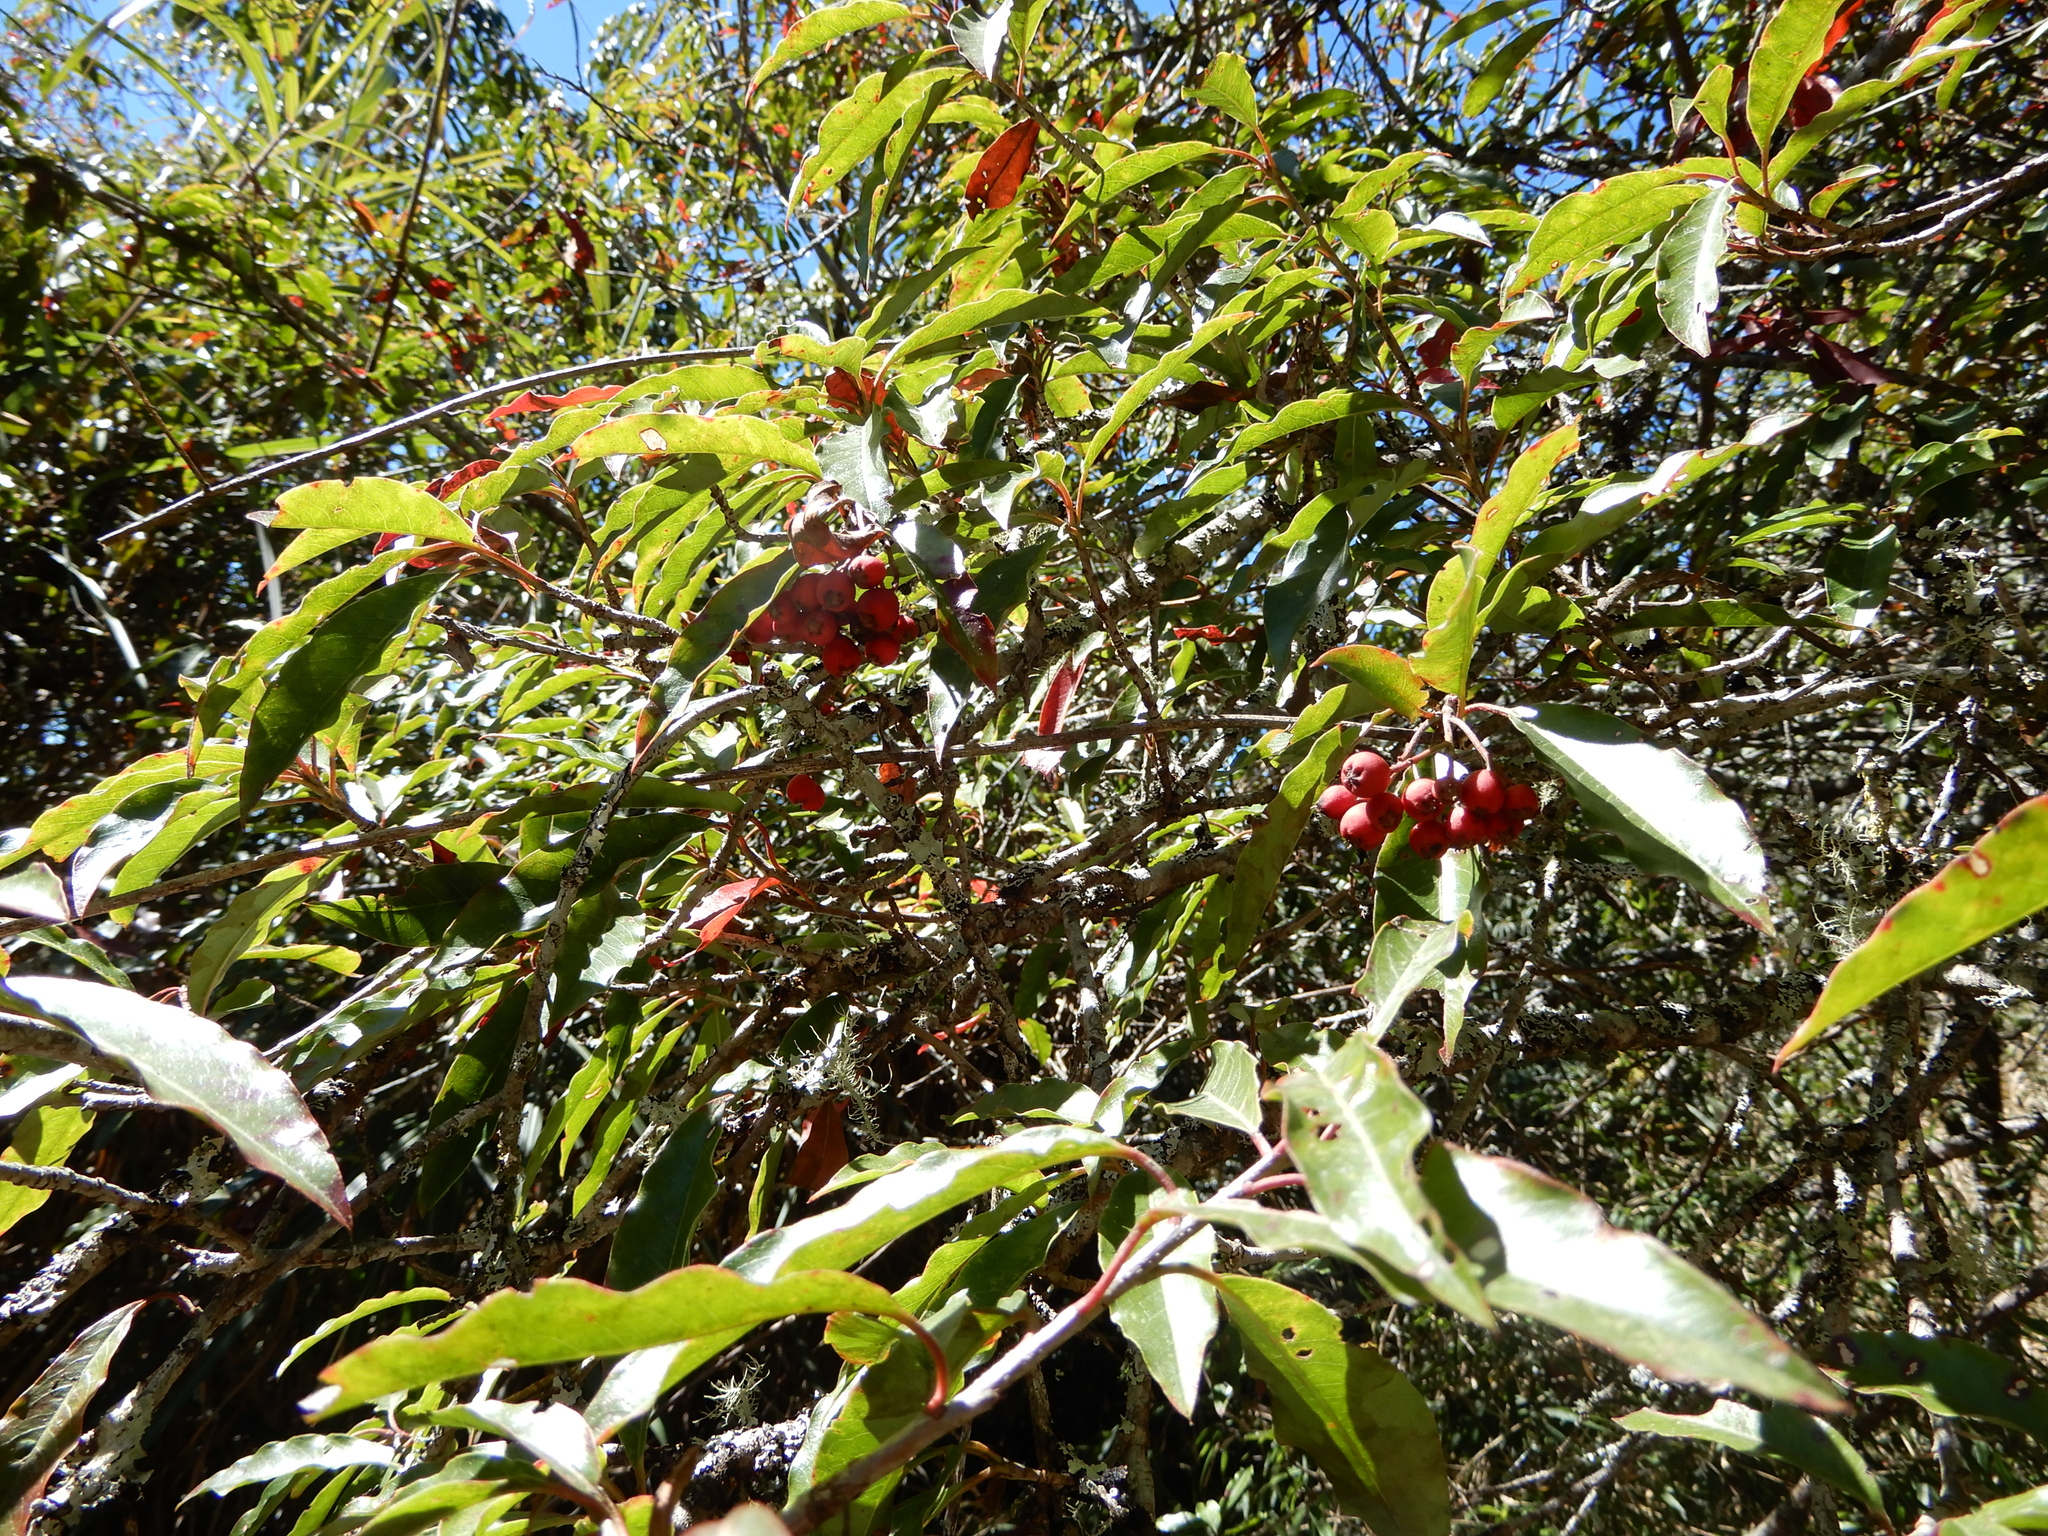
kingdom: Plantae
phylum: Tracheophyta
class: Magnoliopsida
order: Rosales
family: Rosaceae
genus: Stranvaesia
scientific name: Stranvaesia davidiana
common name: Chinese photinia
